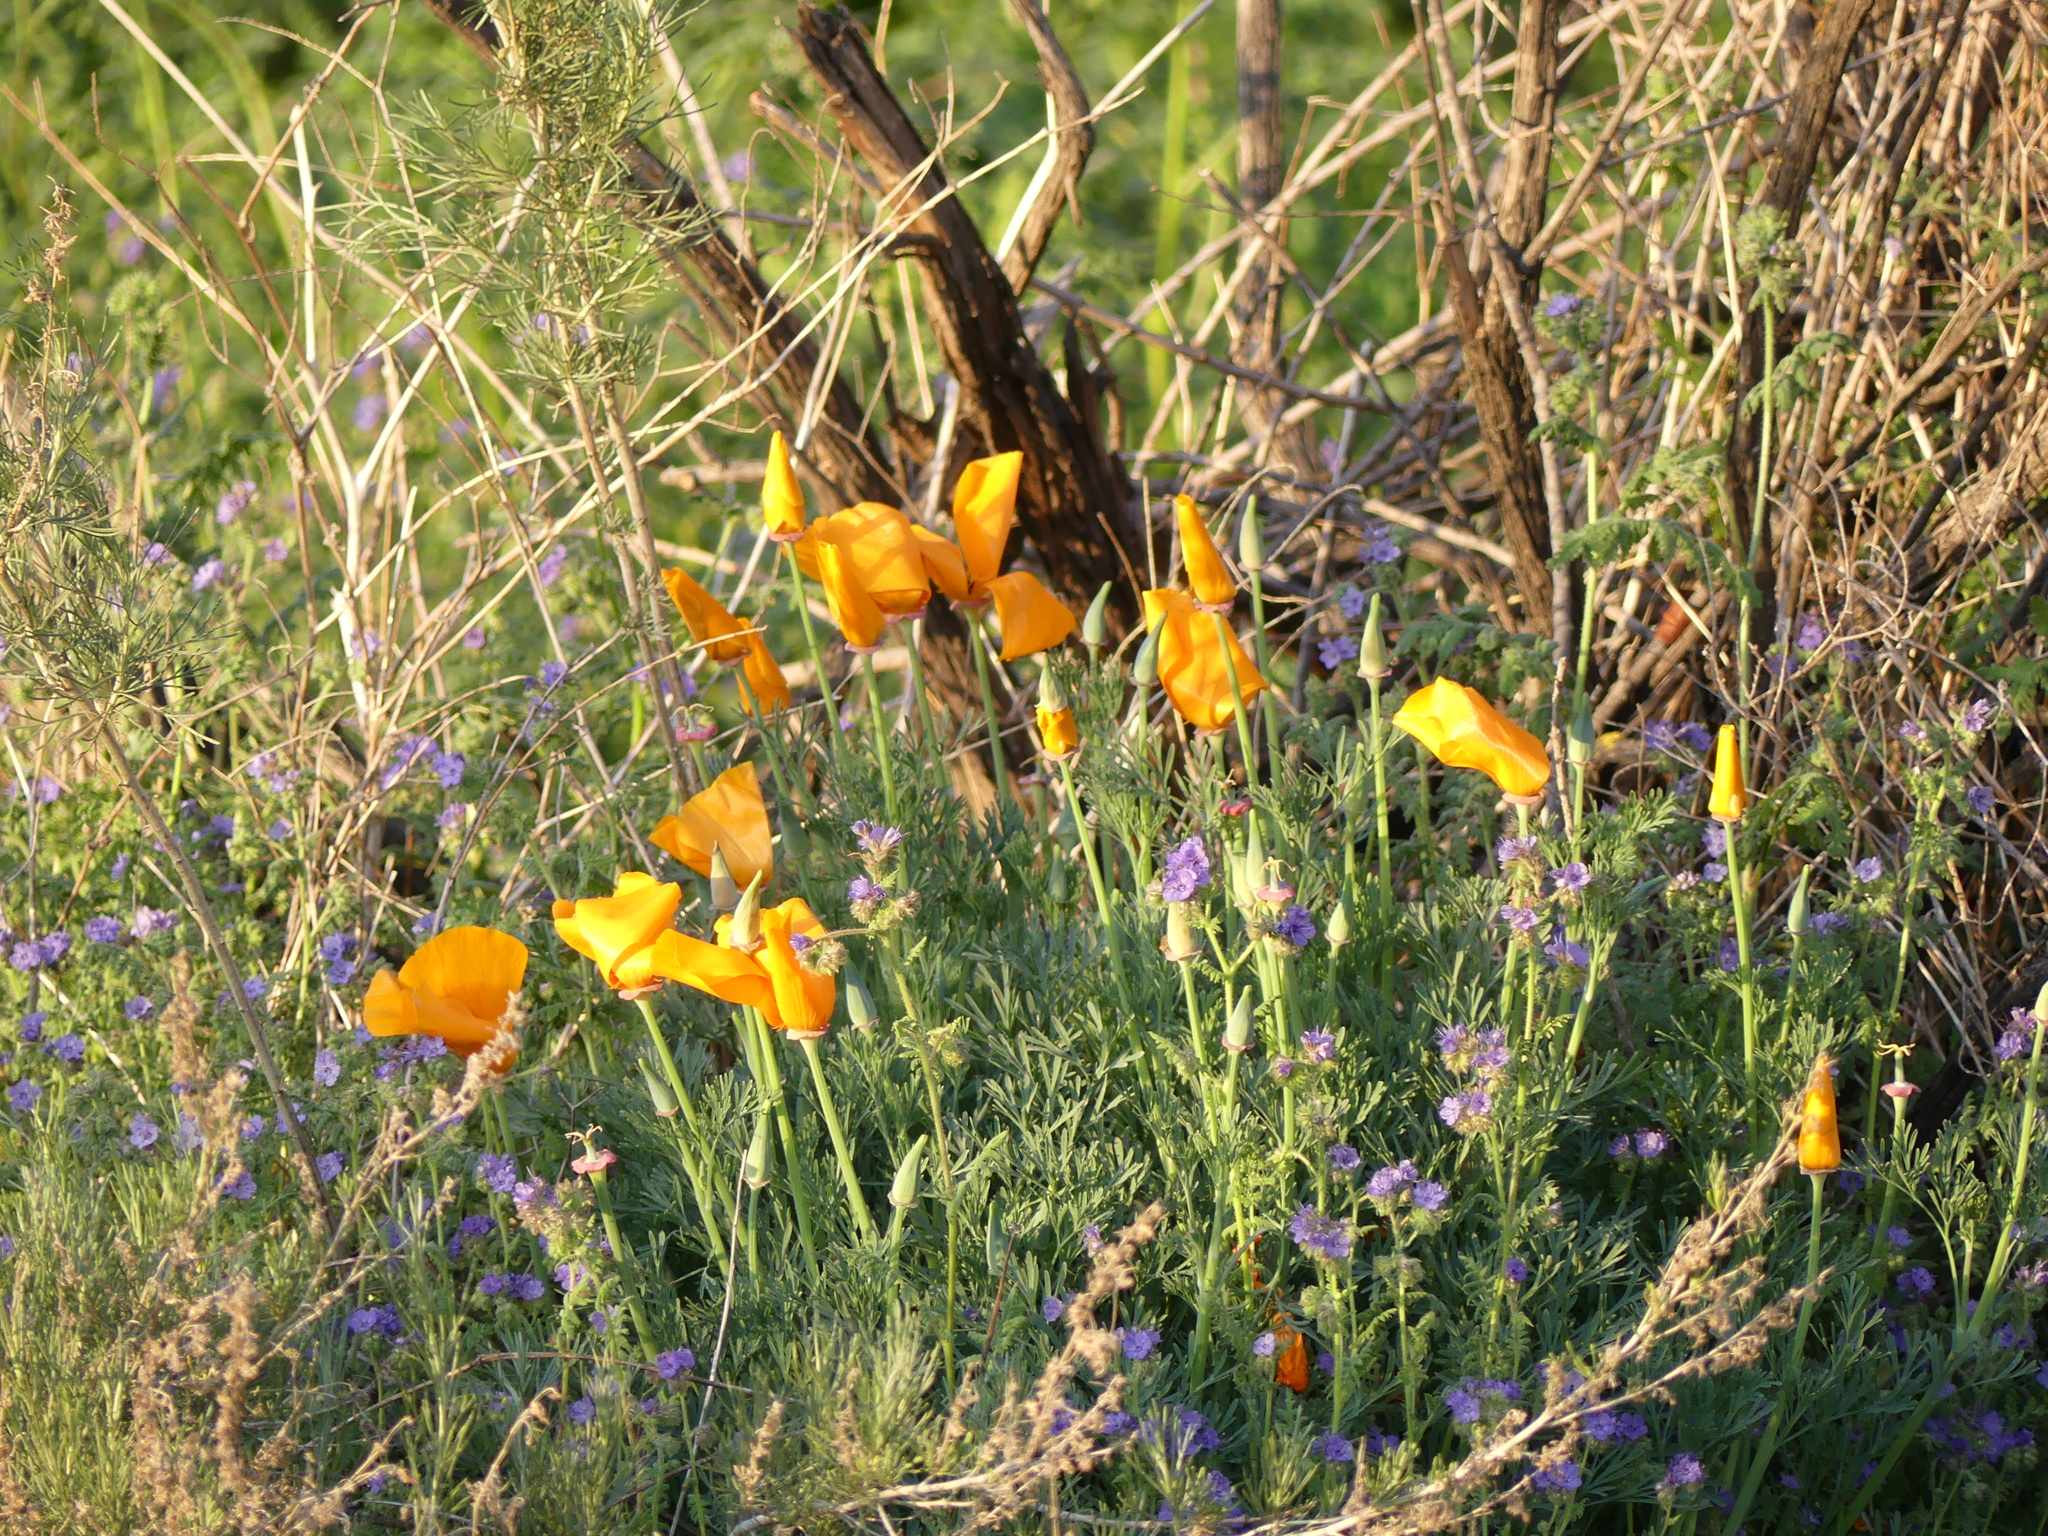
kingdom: Plantae
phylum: Tracheophyta
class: Magnoliopsida
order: Ranunculales
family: Papaveraceae
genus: Eschscholzia
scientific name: Eschscholzia californica
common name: California poppy
